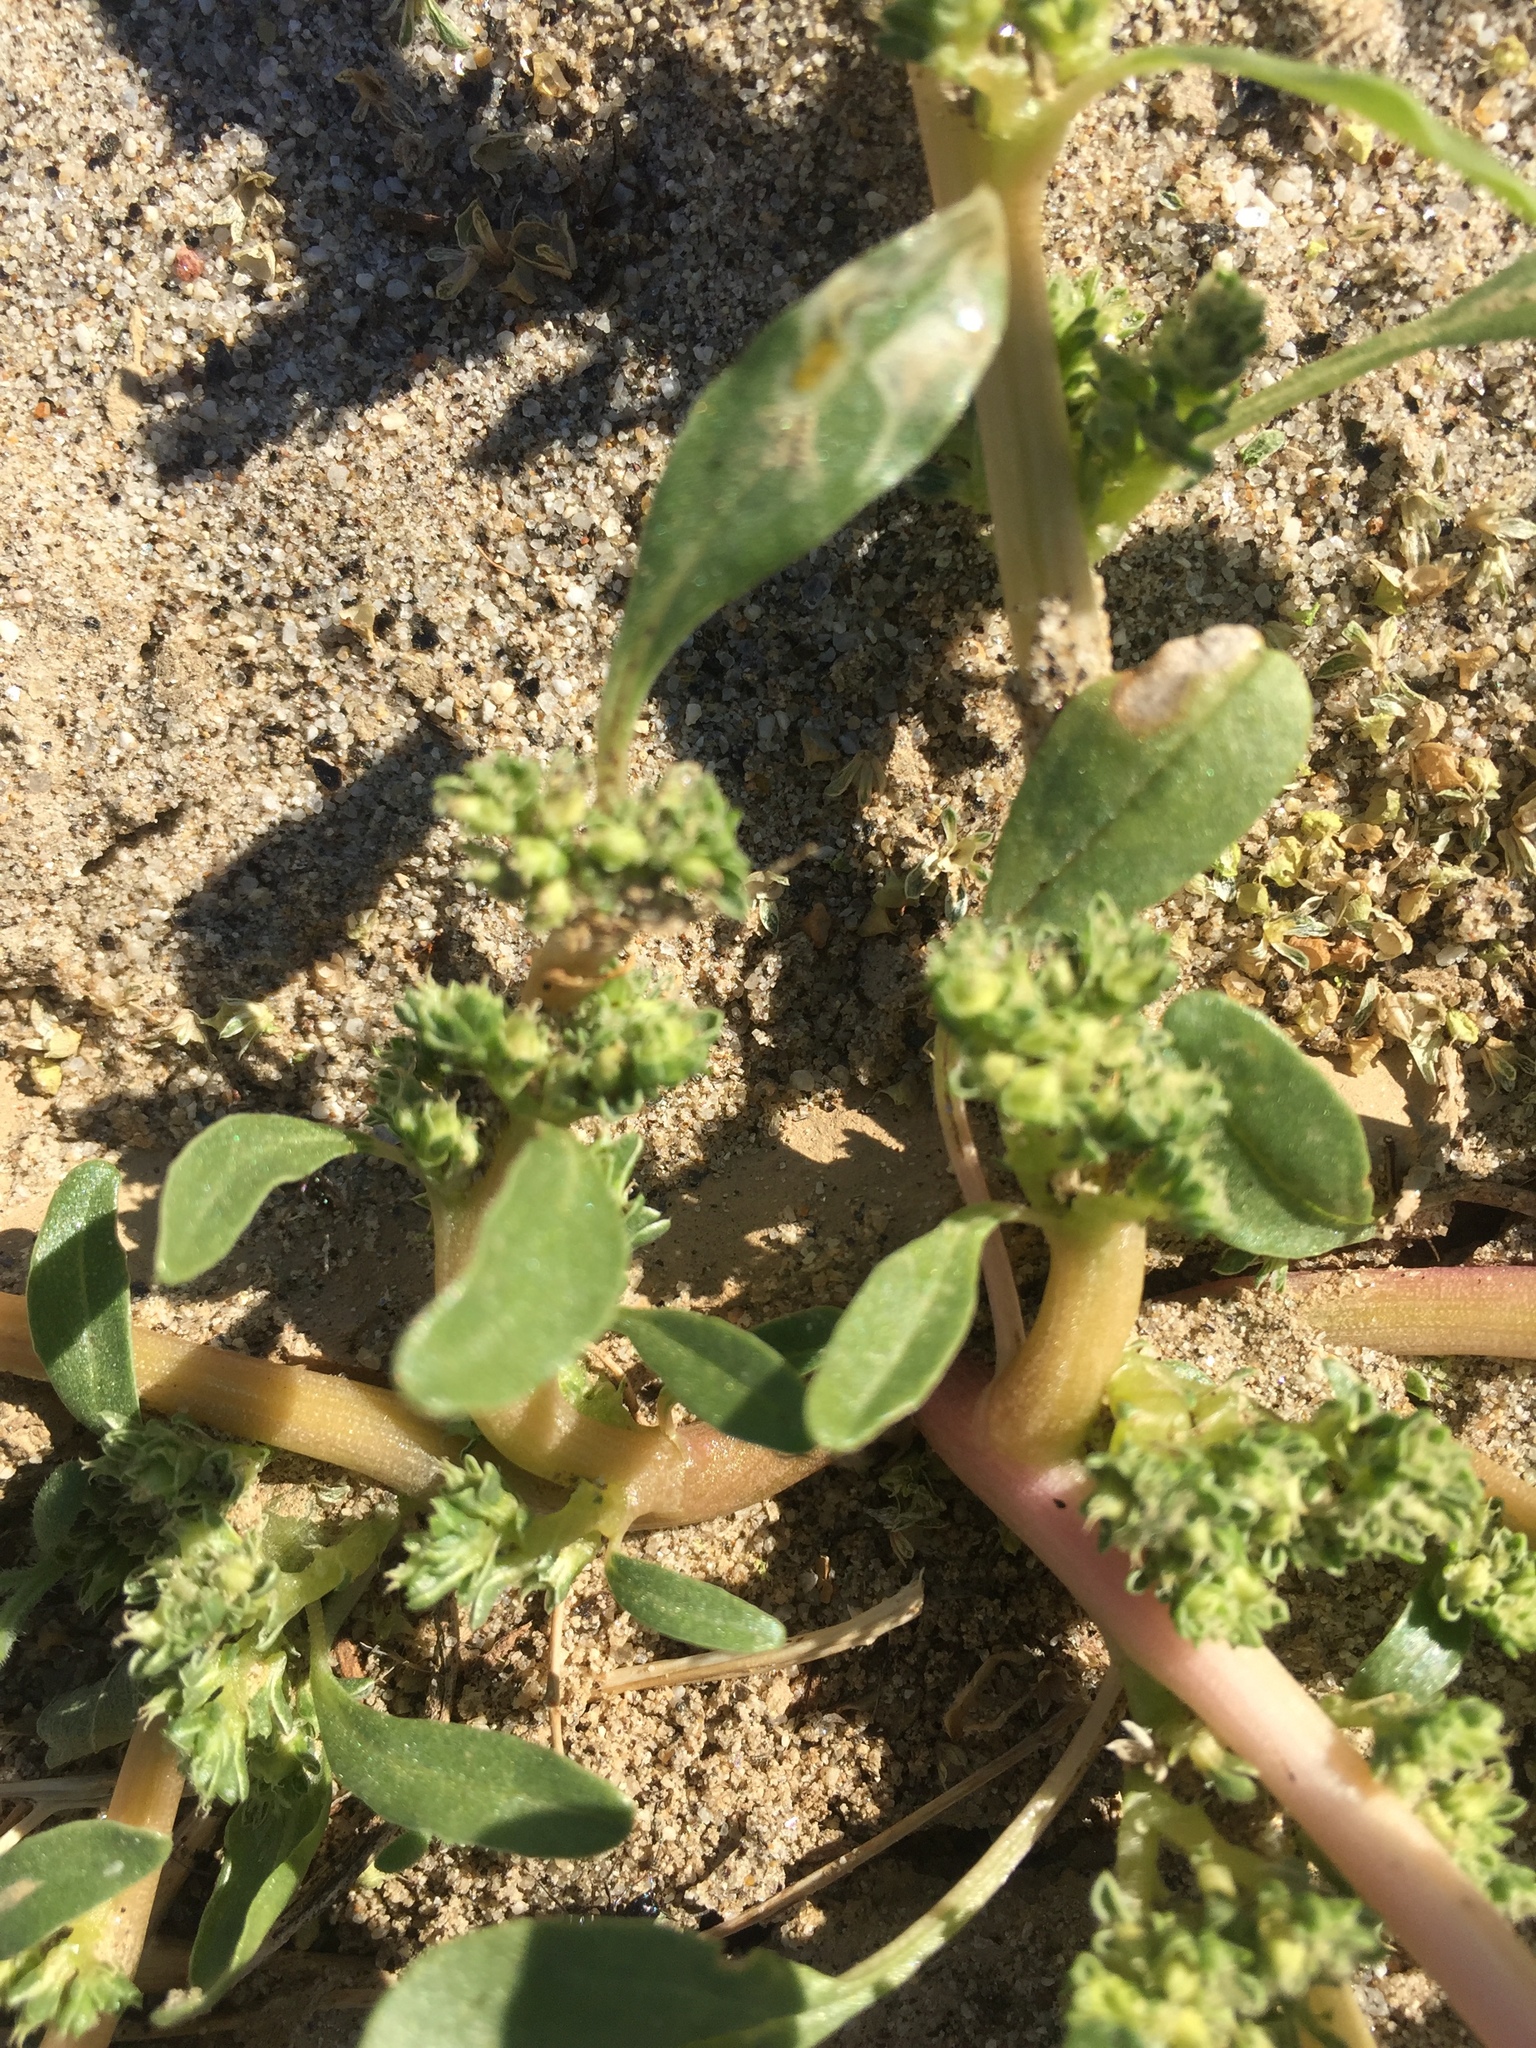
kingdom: Plantae
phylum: Tracheophyta
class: Magnoliopsida
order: Caryophyllales
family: Amaranthaceae
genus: Amaranthus
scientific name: Amaranthus blitoides
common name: Prostrate pigweed
